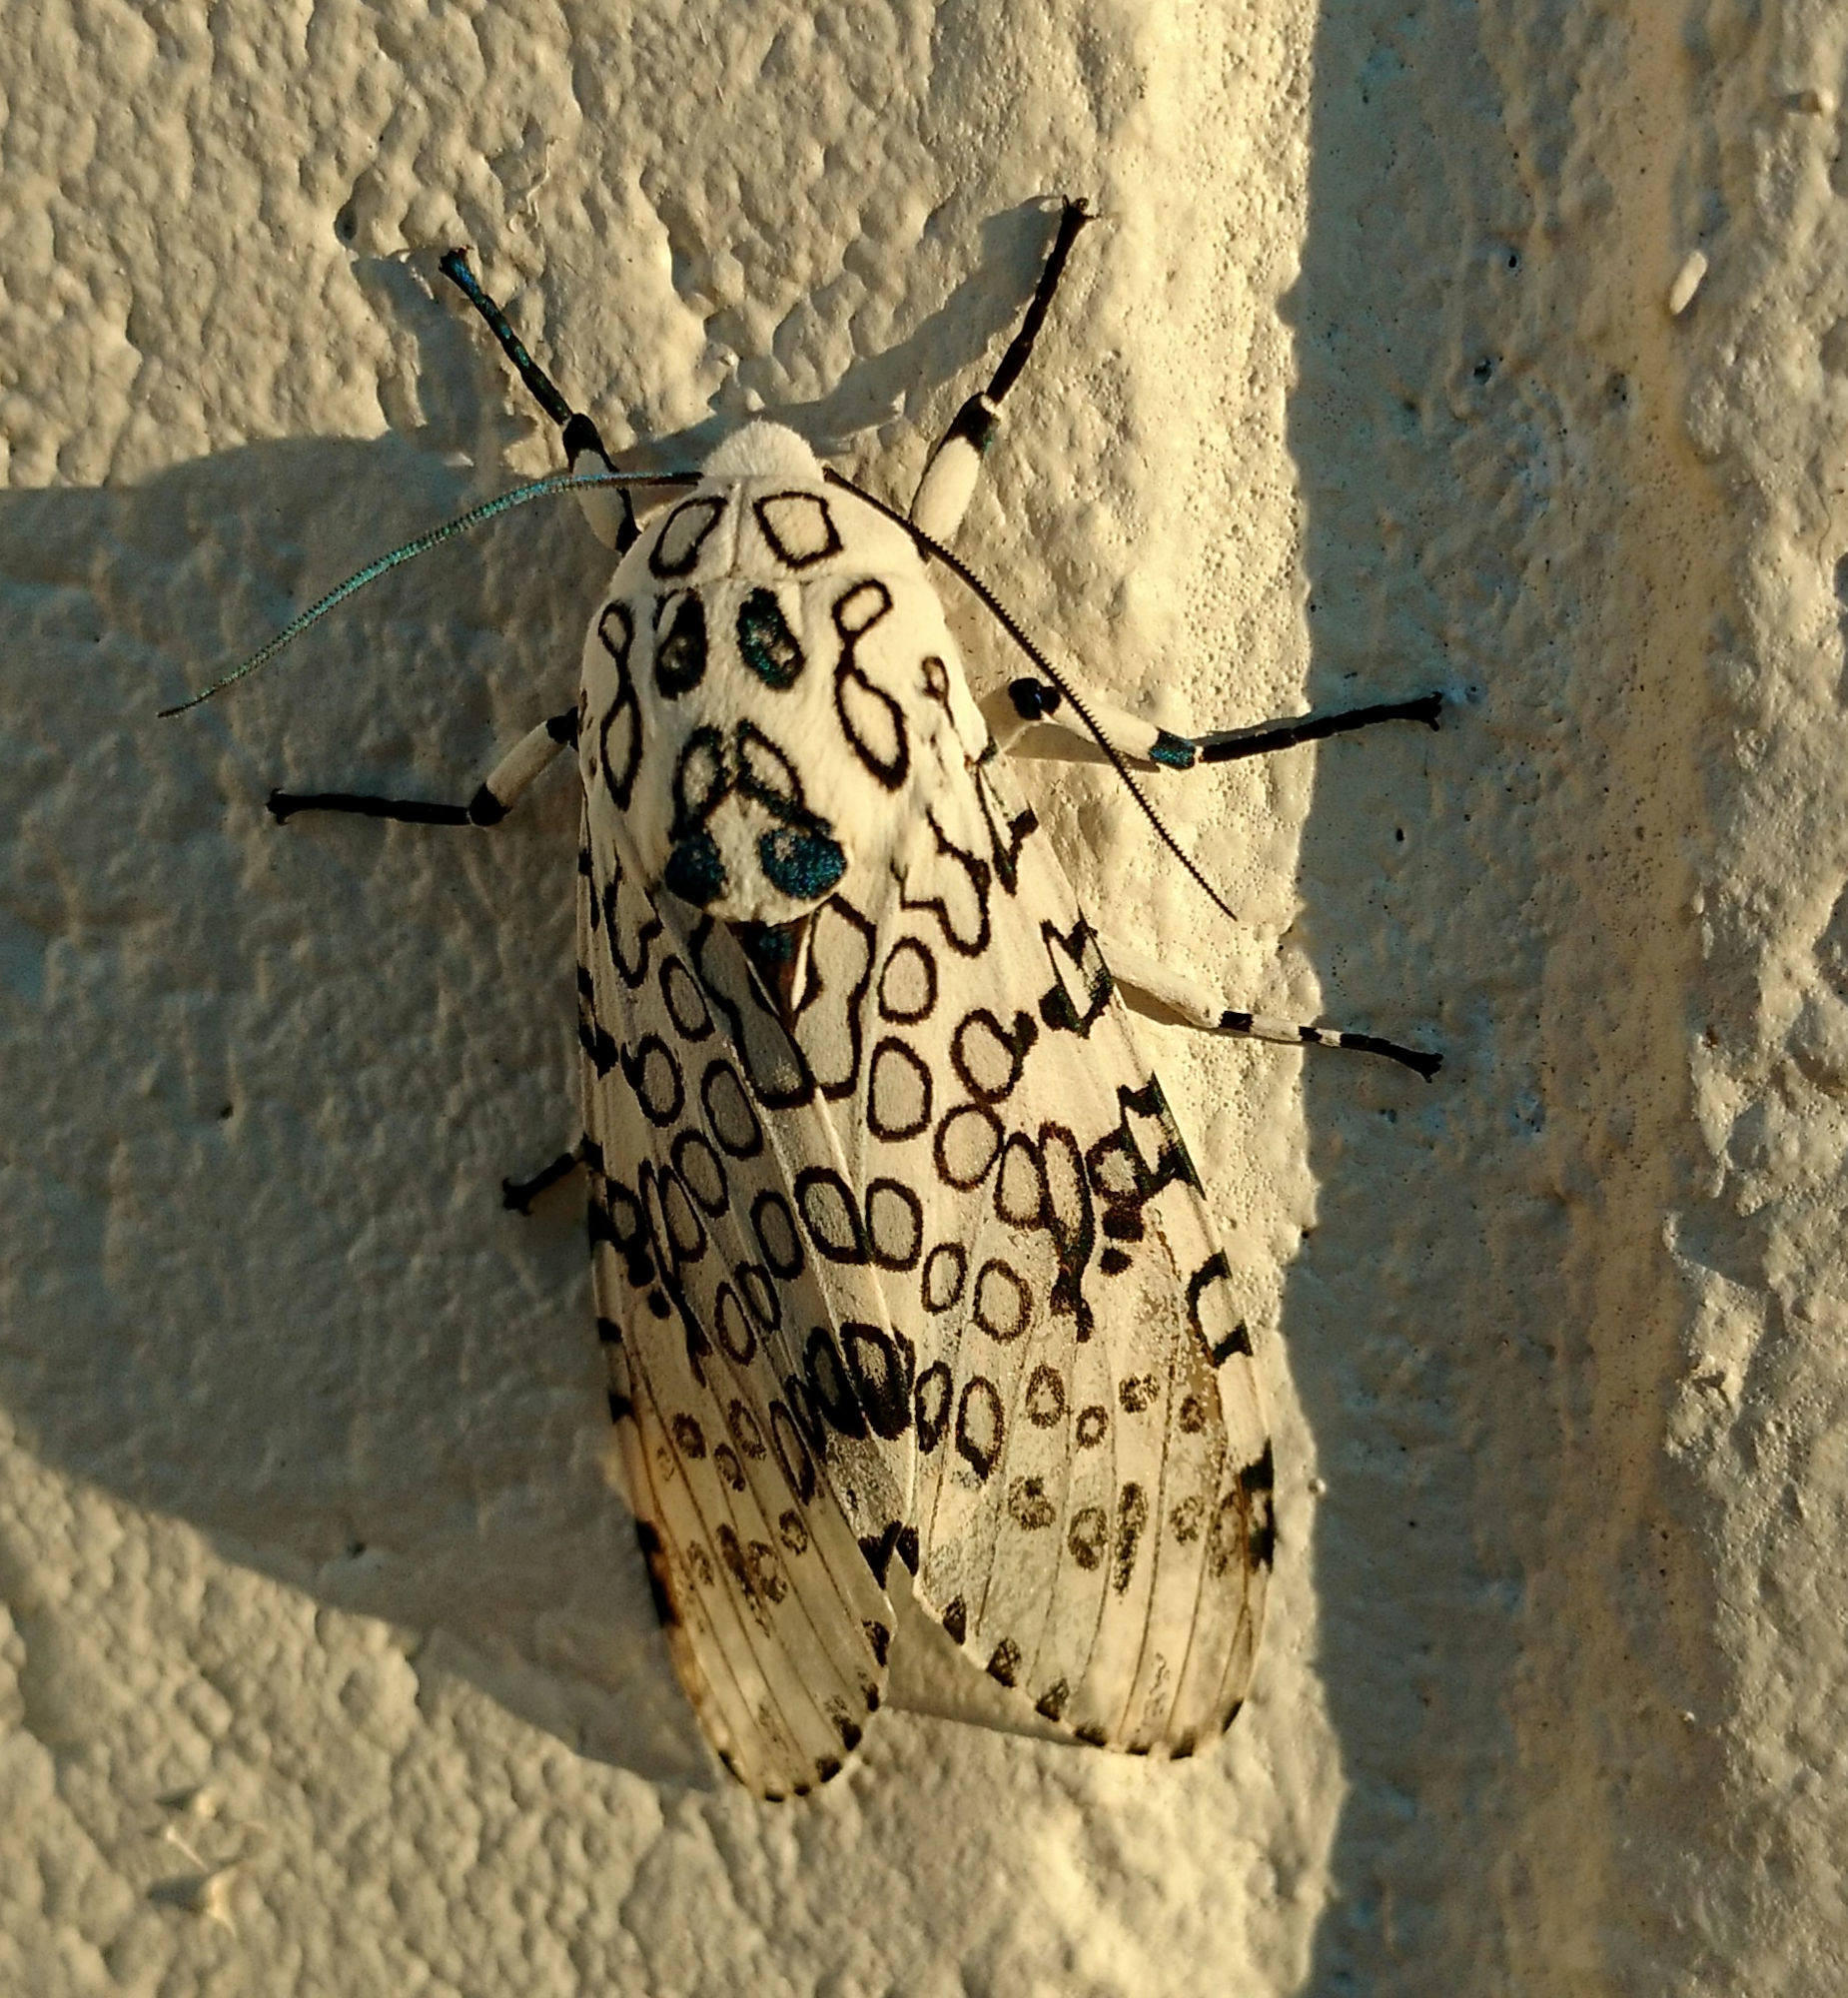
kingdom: Animalia
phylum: Arthropoda
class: Insecta
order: Lepidoptera
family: Erebidae
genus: Hypercompe
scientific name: Hypercompe scribonia
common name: Giant leopard moth
